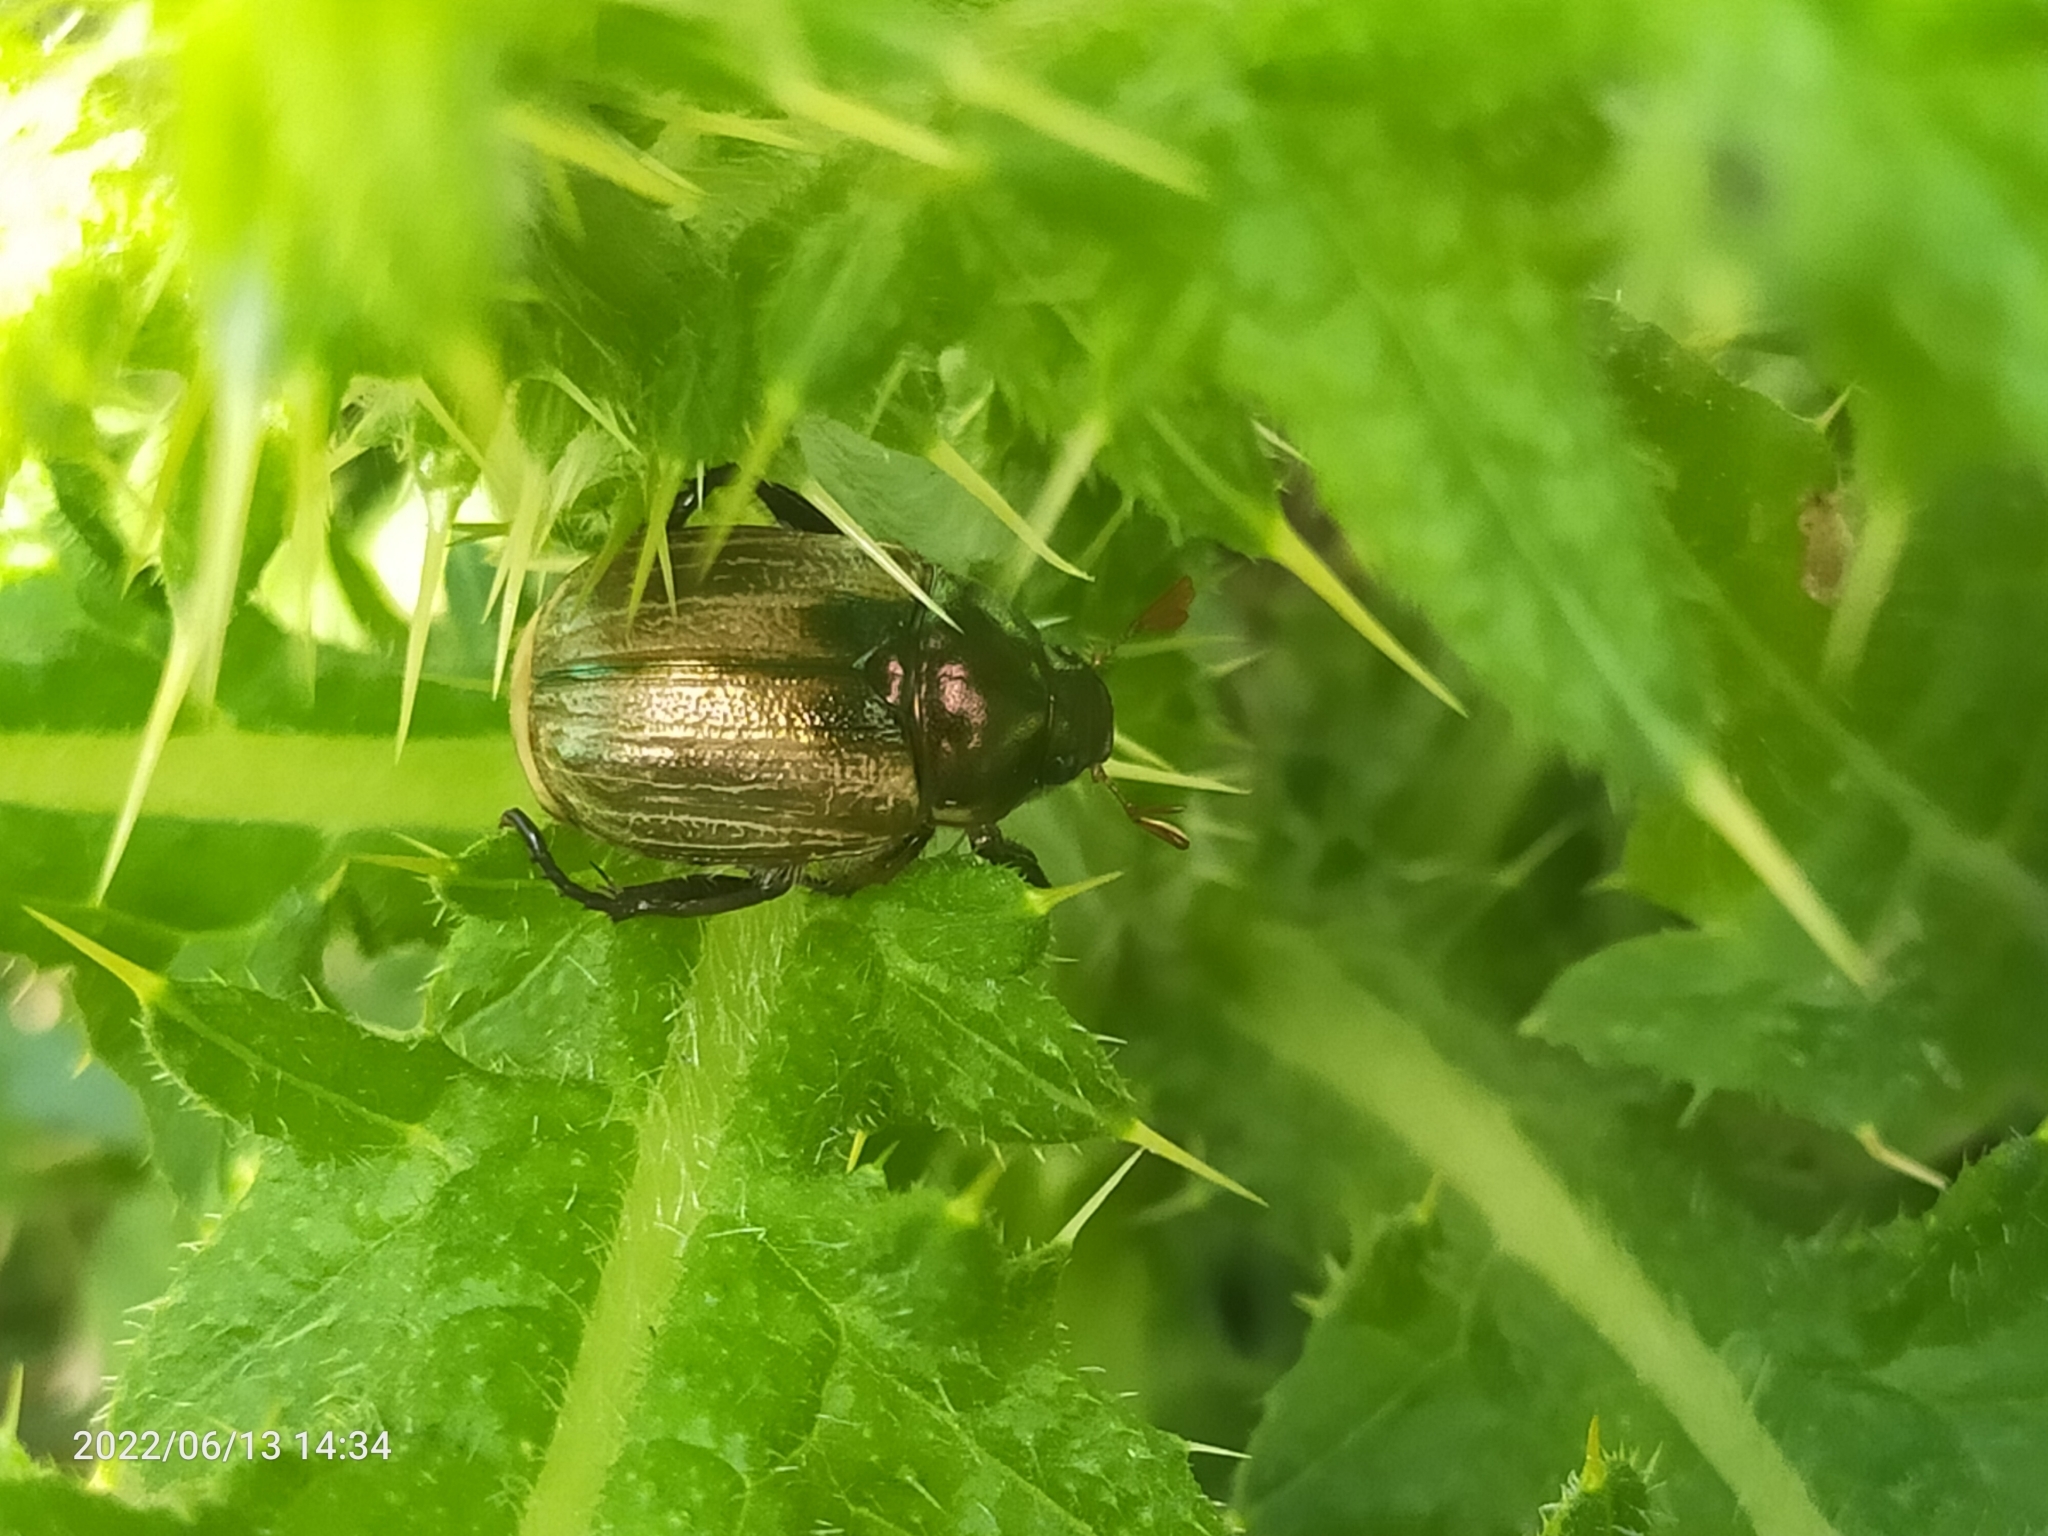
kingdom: Animalia
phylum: Arthropoda
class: Insecta
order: Coleoptera
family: Scarabaeidae
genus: Mimela
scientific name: Mimela junii
